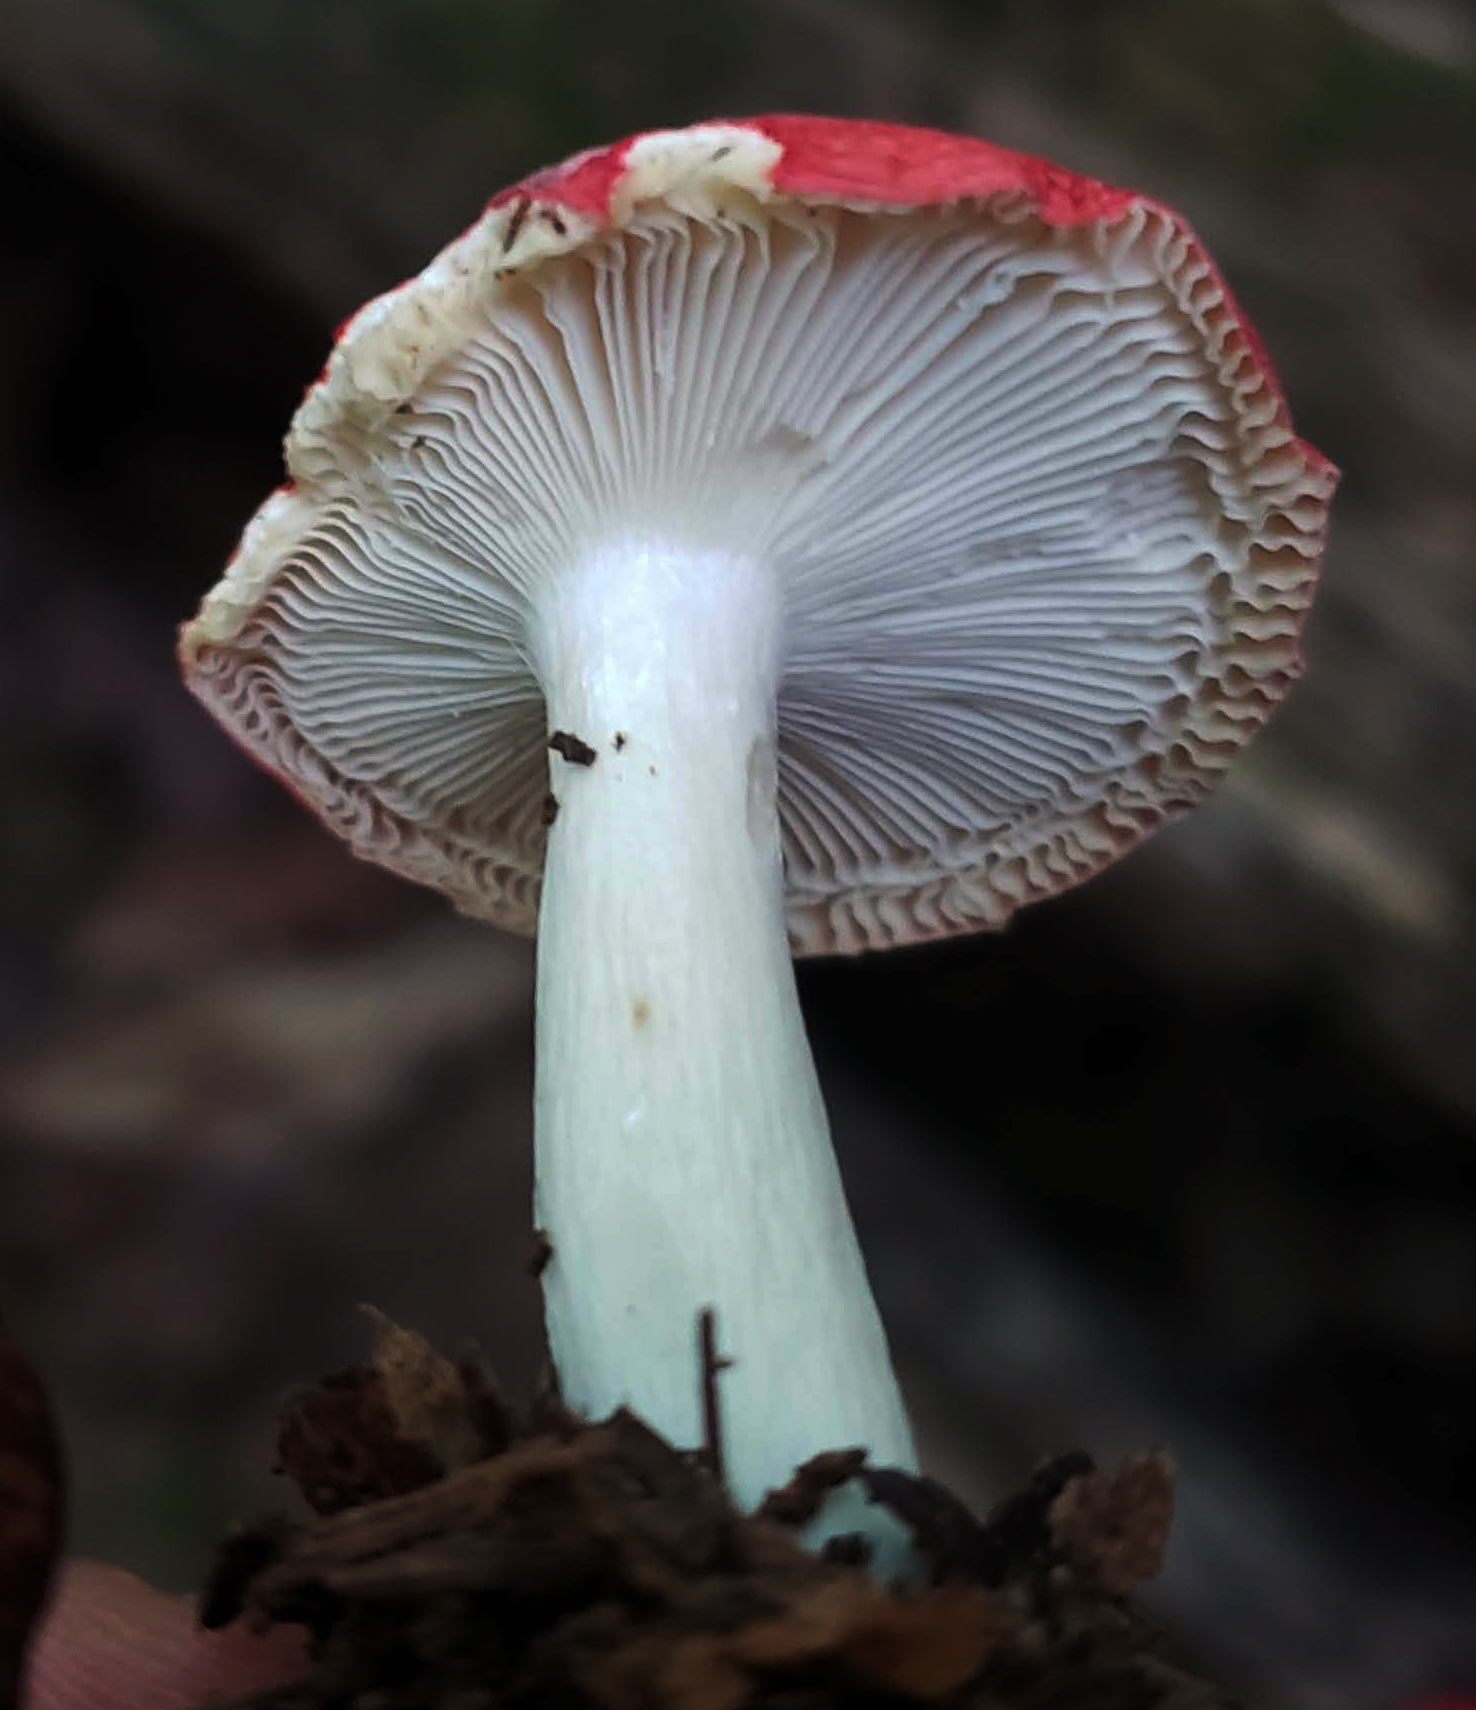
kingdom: Fungi
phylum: Basidiomycota
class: Agaricomycetes
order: Russulales
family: Russulaceae
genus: Russula
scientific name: Russula
